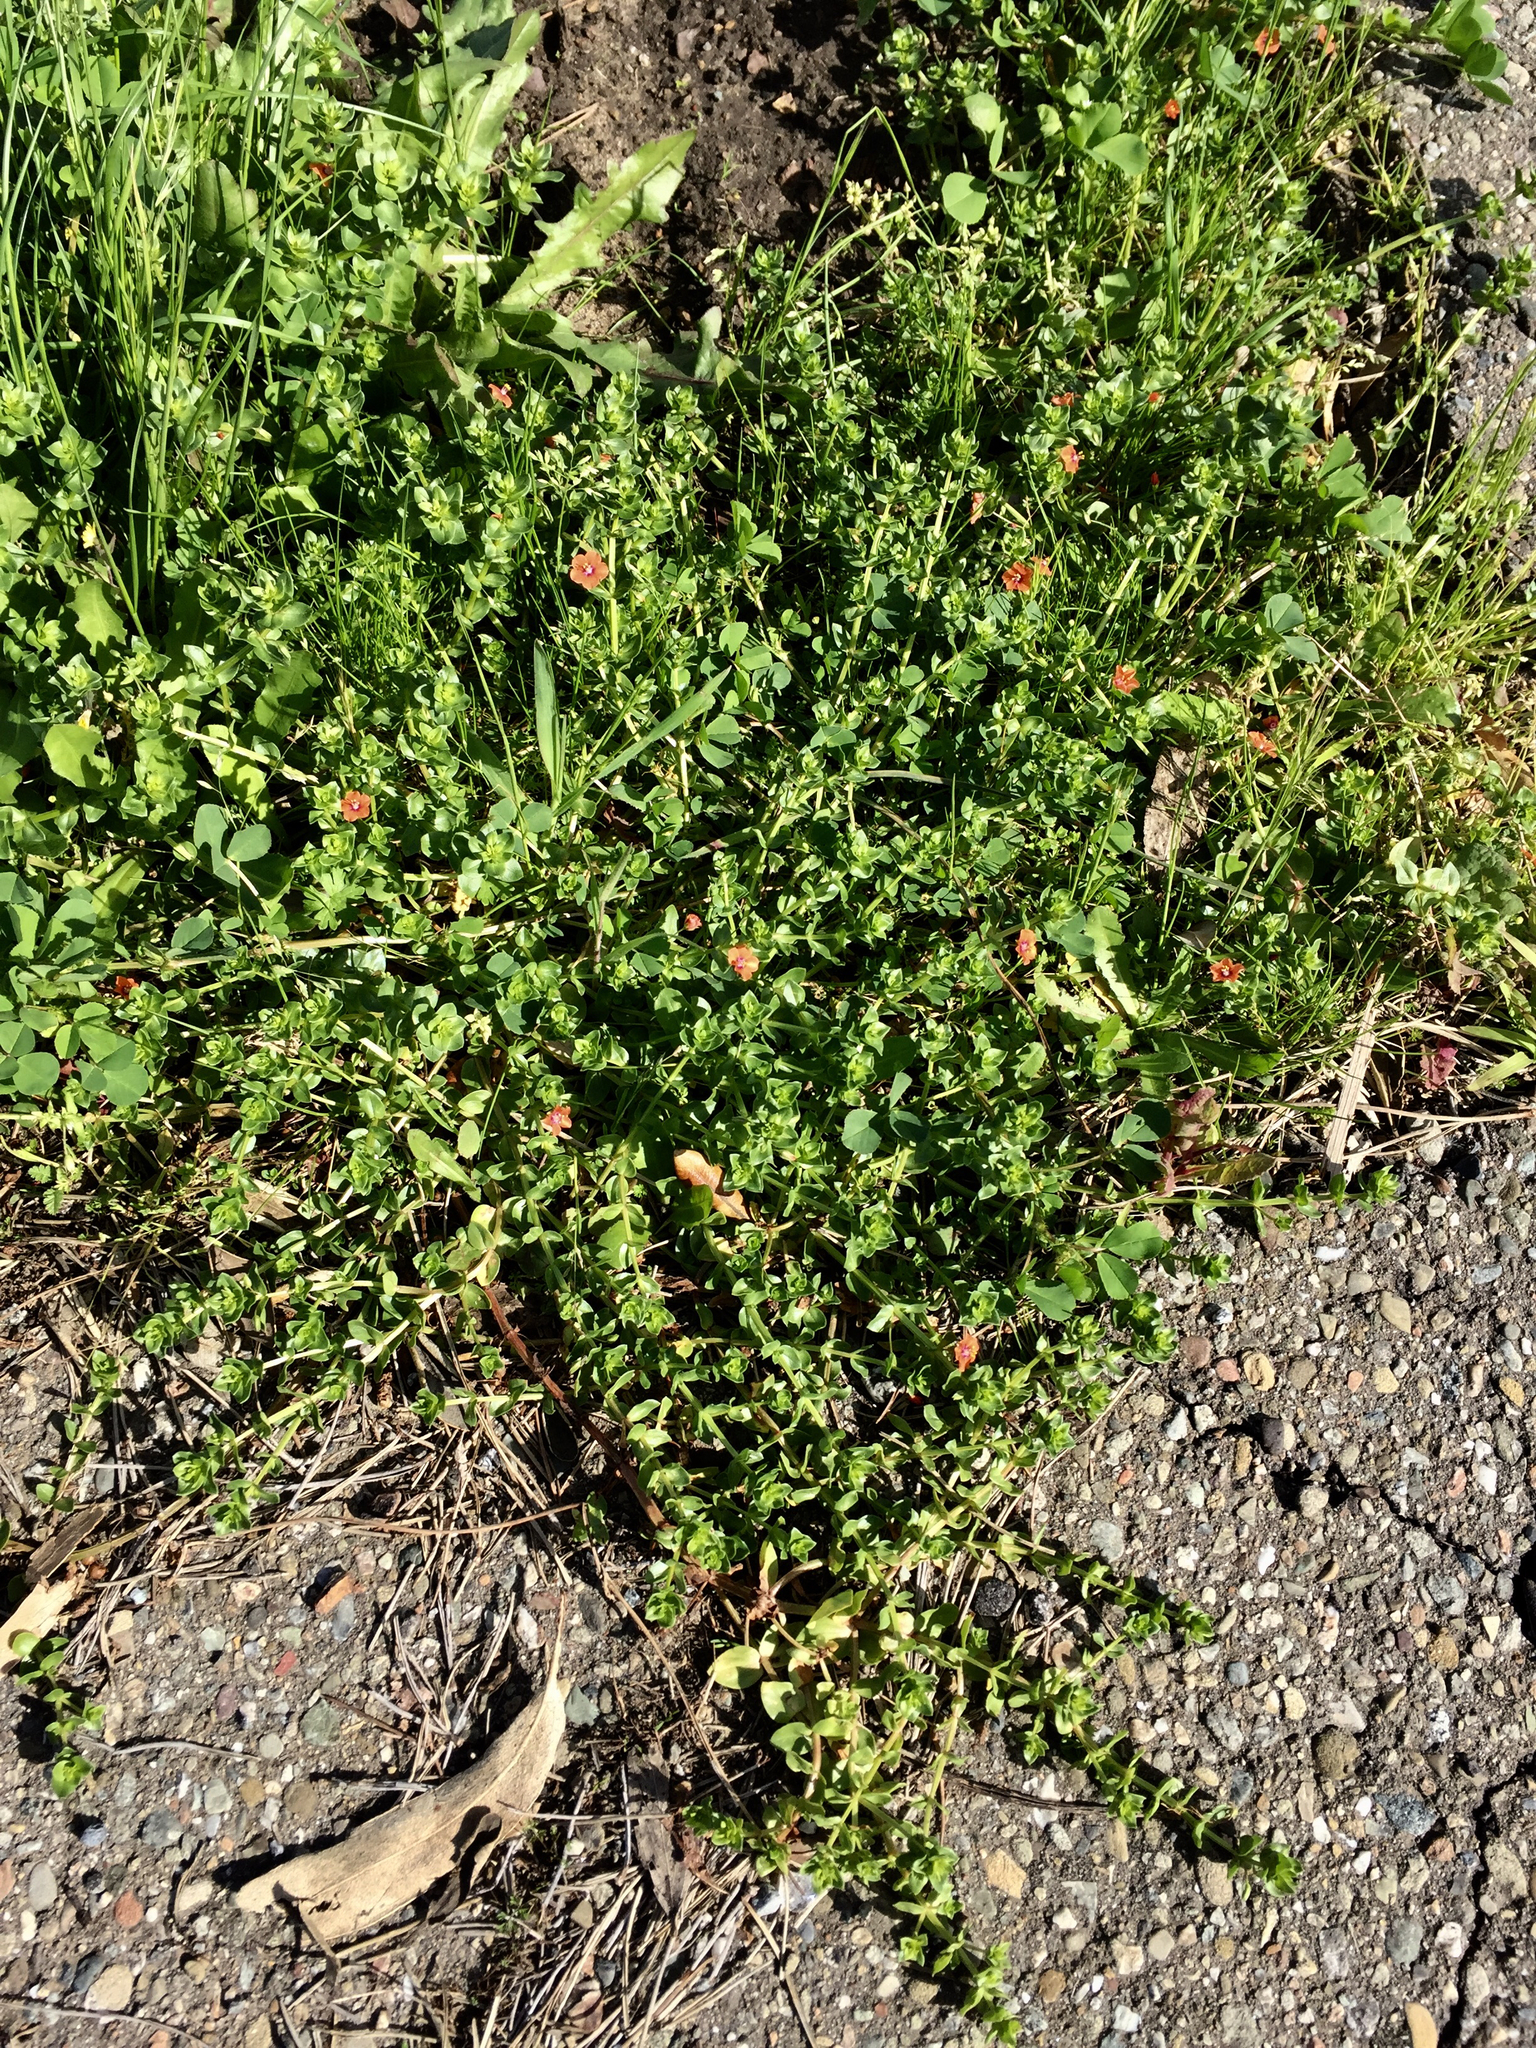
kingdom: Plantae
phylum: Tracheophyta
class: Magnoliopsida
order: Ericales
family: Primulaceae
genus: Lysimachia
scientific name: Lysimachia arvensis
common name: Scarlet pimpernel
